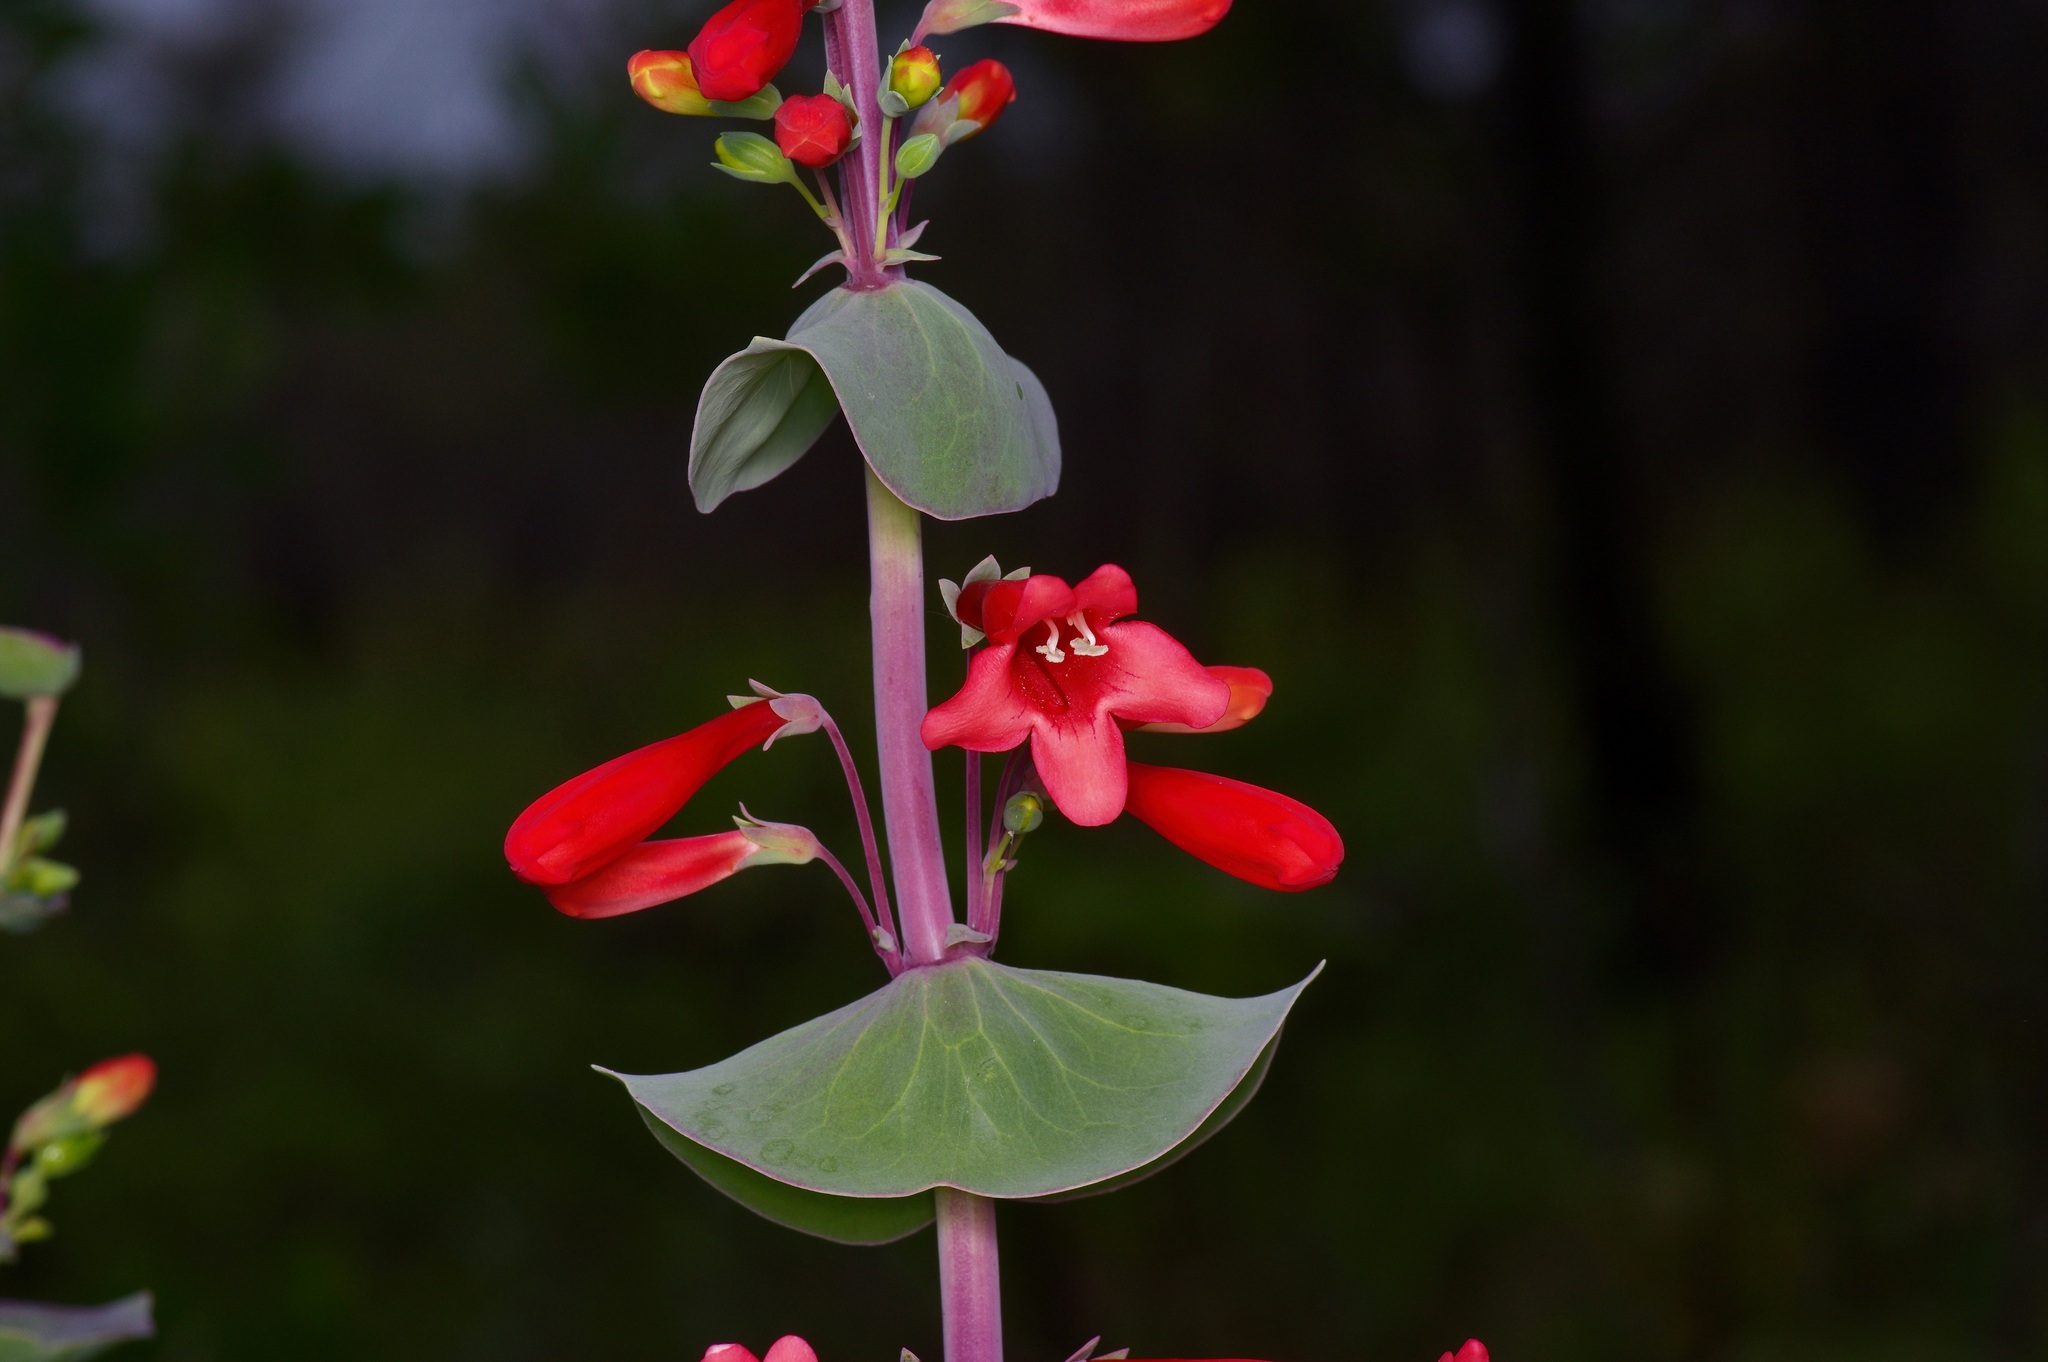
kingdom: Plantae
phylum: Tracheophyta
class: Magnoliopsida
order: Lamiales
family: Plantaginaceae
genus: Penstemon
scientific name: Penstemon murrayanus
